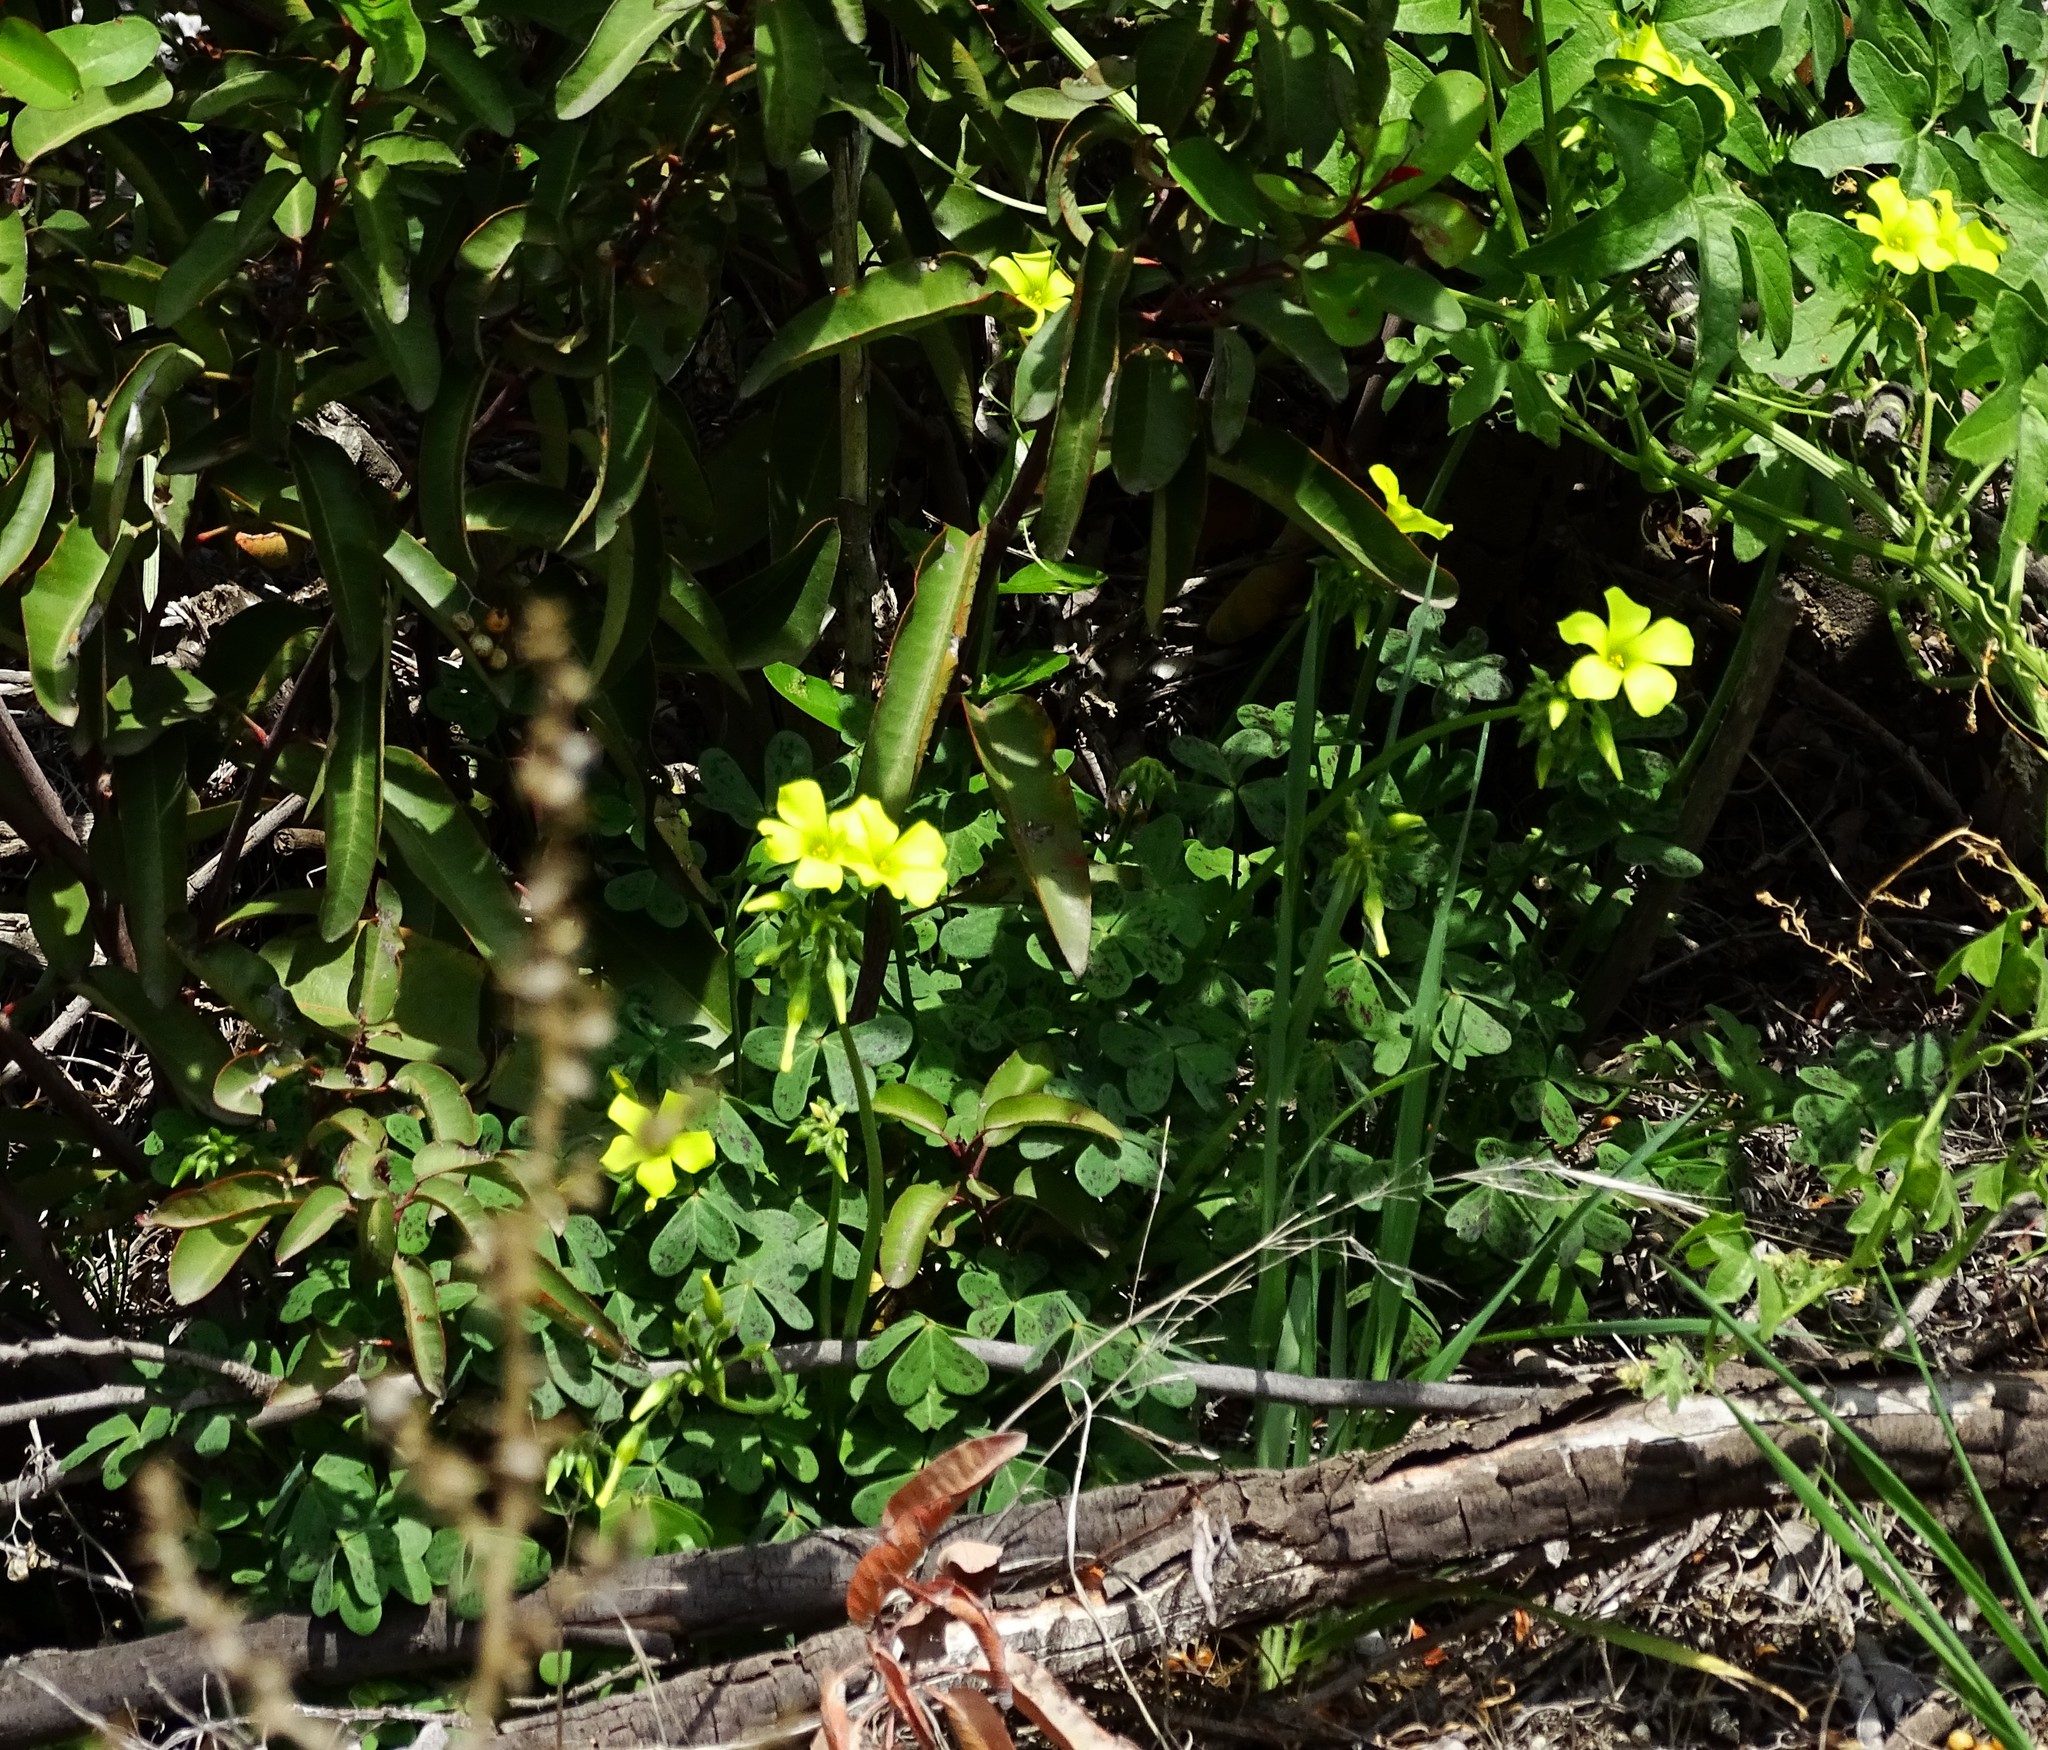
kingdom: Plantae
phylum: Tracheophyta
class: Magnoliopsida
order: Oxalidales
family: Oxalidaceae
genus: Oxalis
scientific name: Oxalis pes-caprae
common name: Bermuda-buttercup
